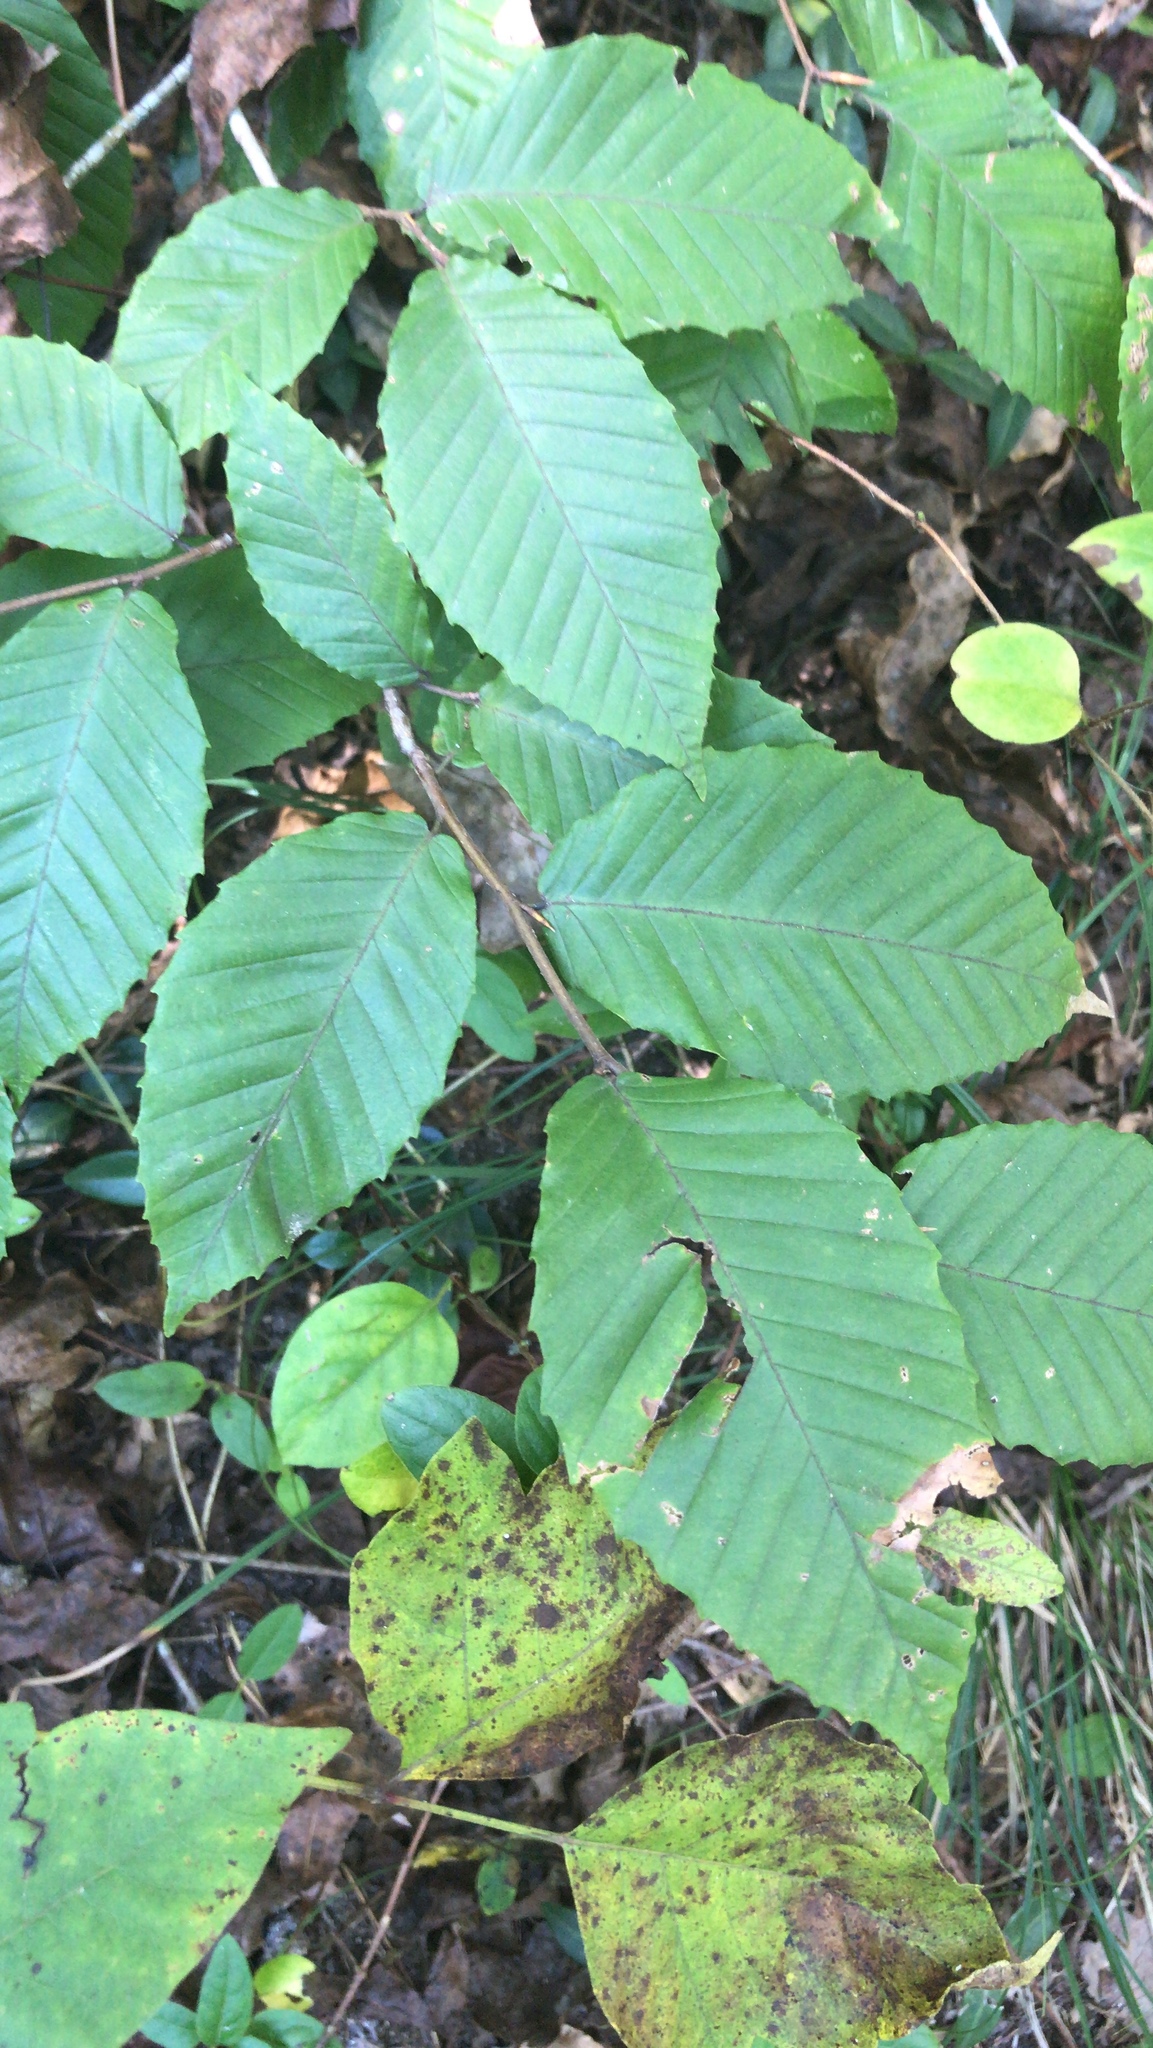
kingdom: Plantae
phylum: Tracheophyta
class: Magnoliopsida
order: Fagales
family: Fagaceae
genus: Fagus
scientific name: Fagus grandifolia
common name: American beech
